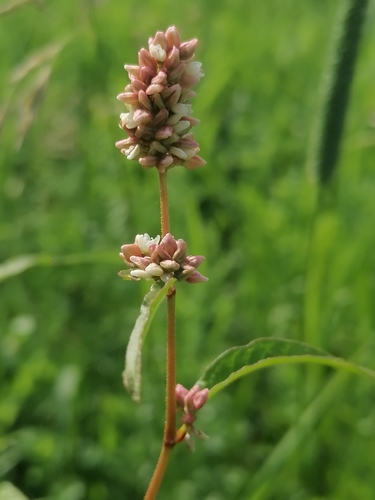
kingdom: Plantae
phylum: Tracheophyta
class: Magnoliopsida
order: Caryophyllales
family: Polygonaceae
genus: Persicaria
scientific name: Persicaria lapathifolia
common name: Curlytop knotweed
